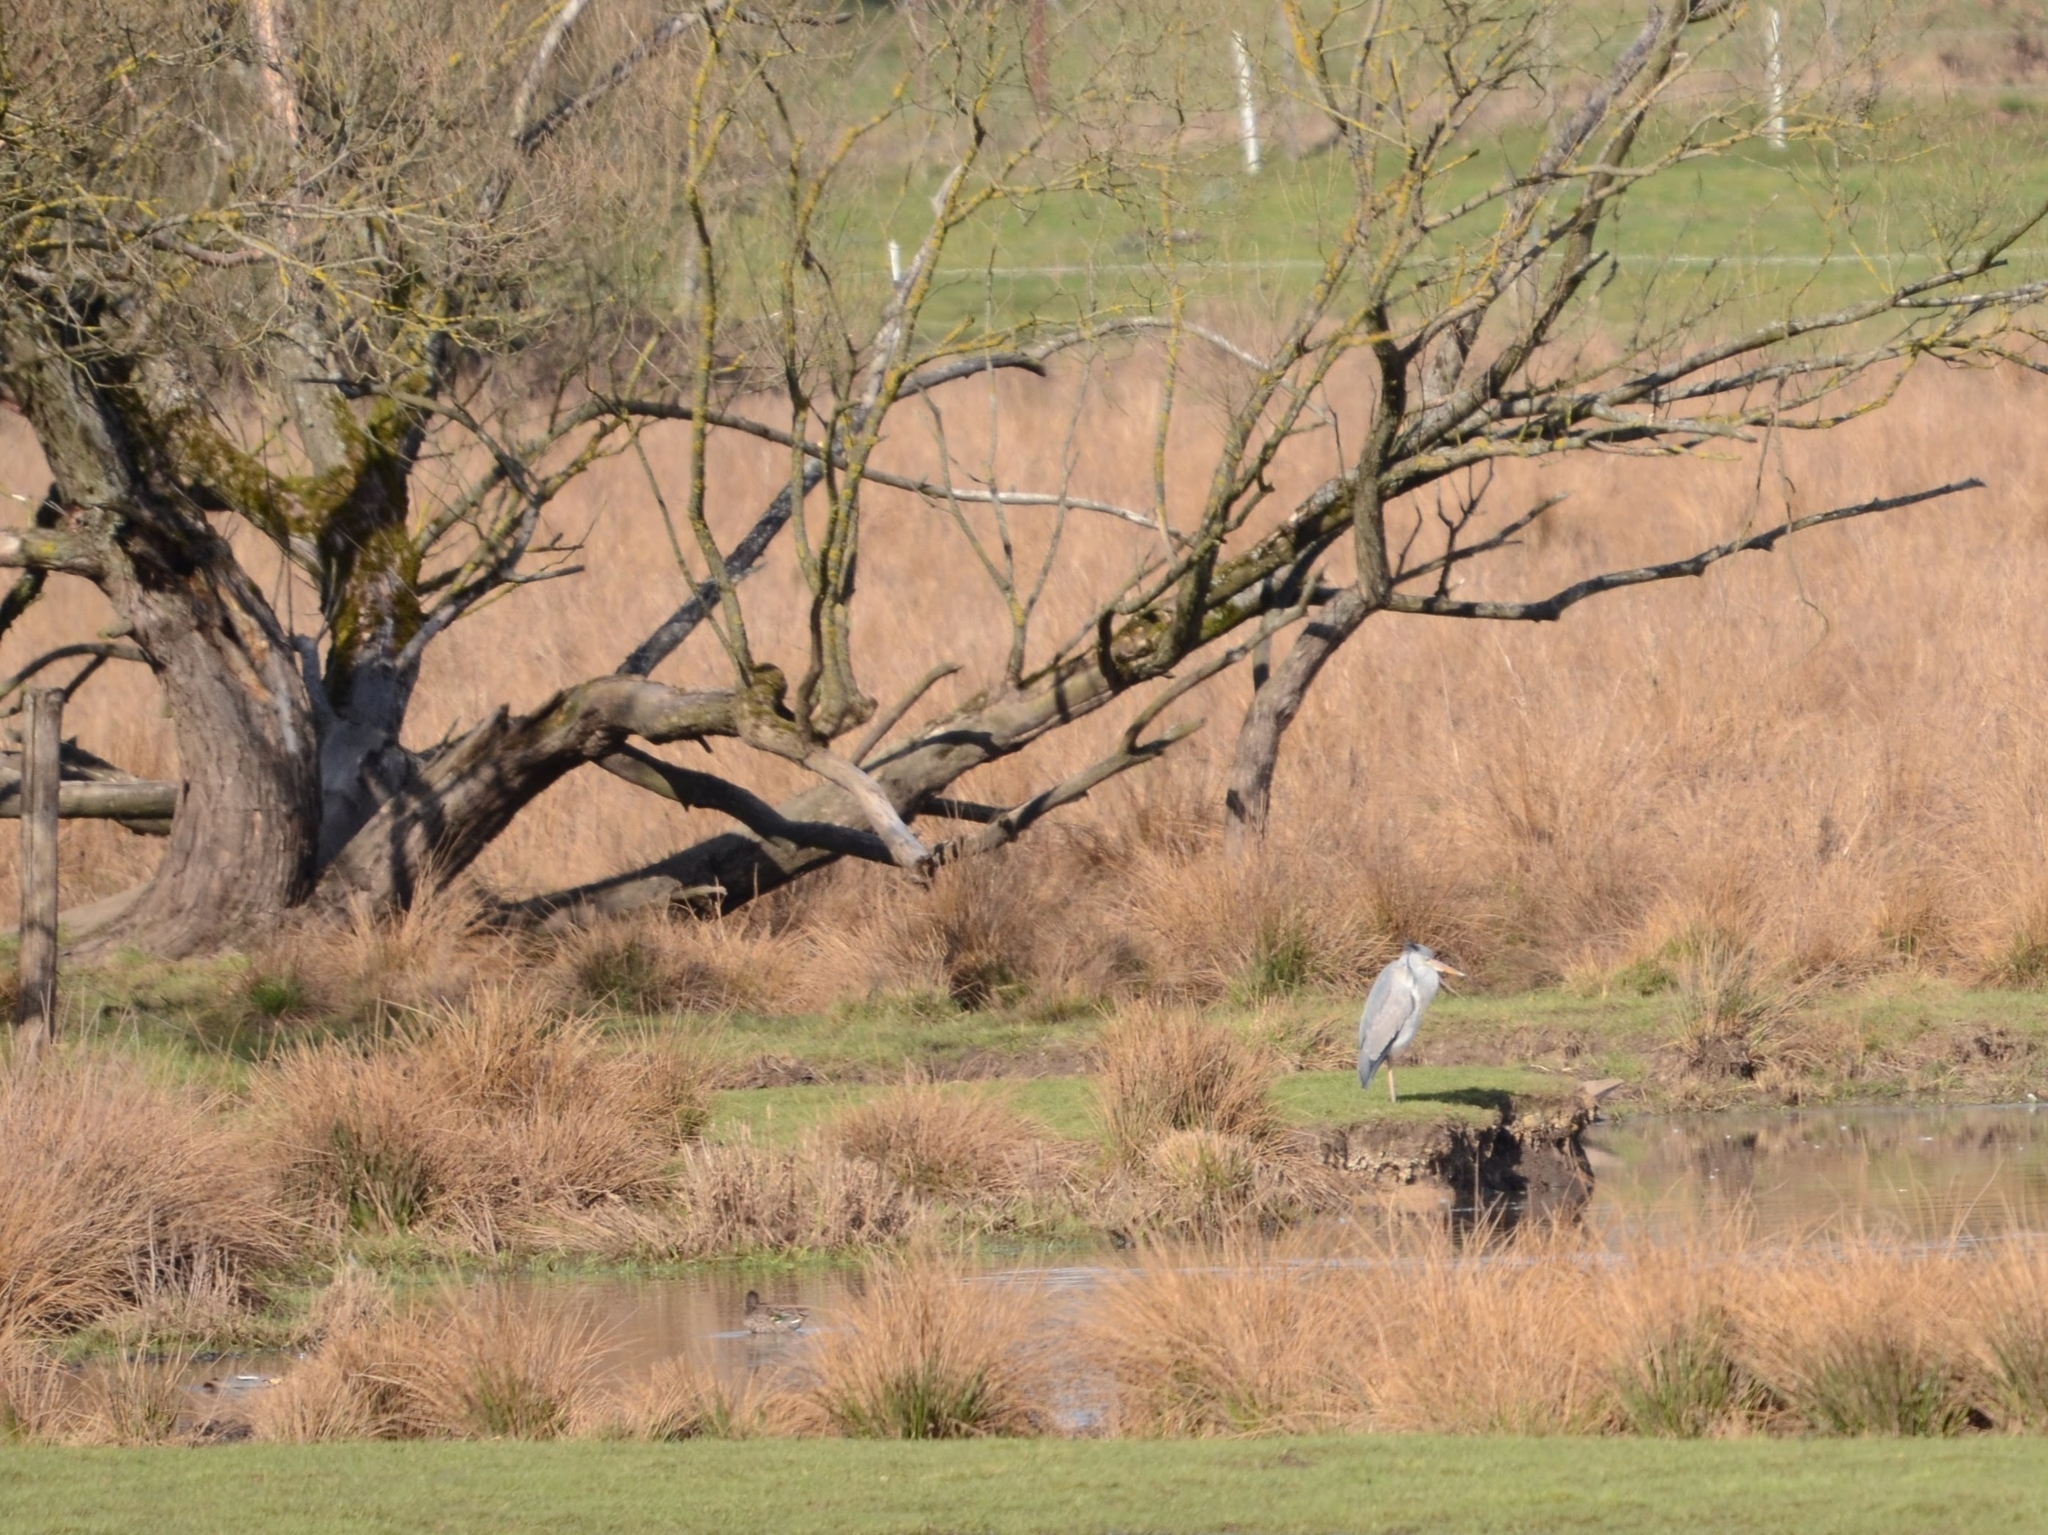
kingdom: Animalia
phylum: Chordata
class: Aves
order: Pelecaniformes
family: Ardeidae
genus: Ardea
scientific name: Ardea cinerea
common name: Grey heron
